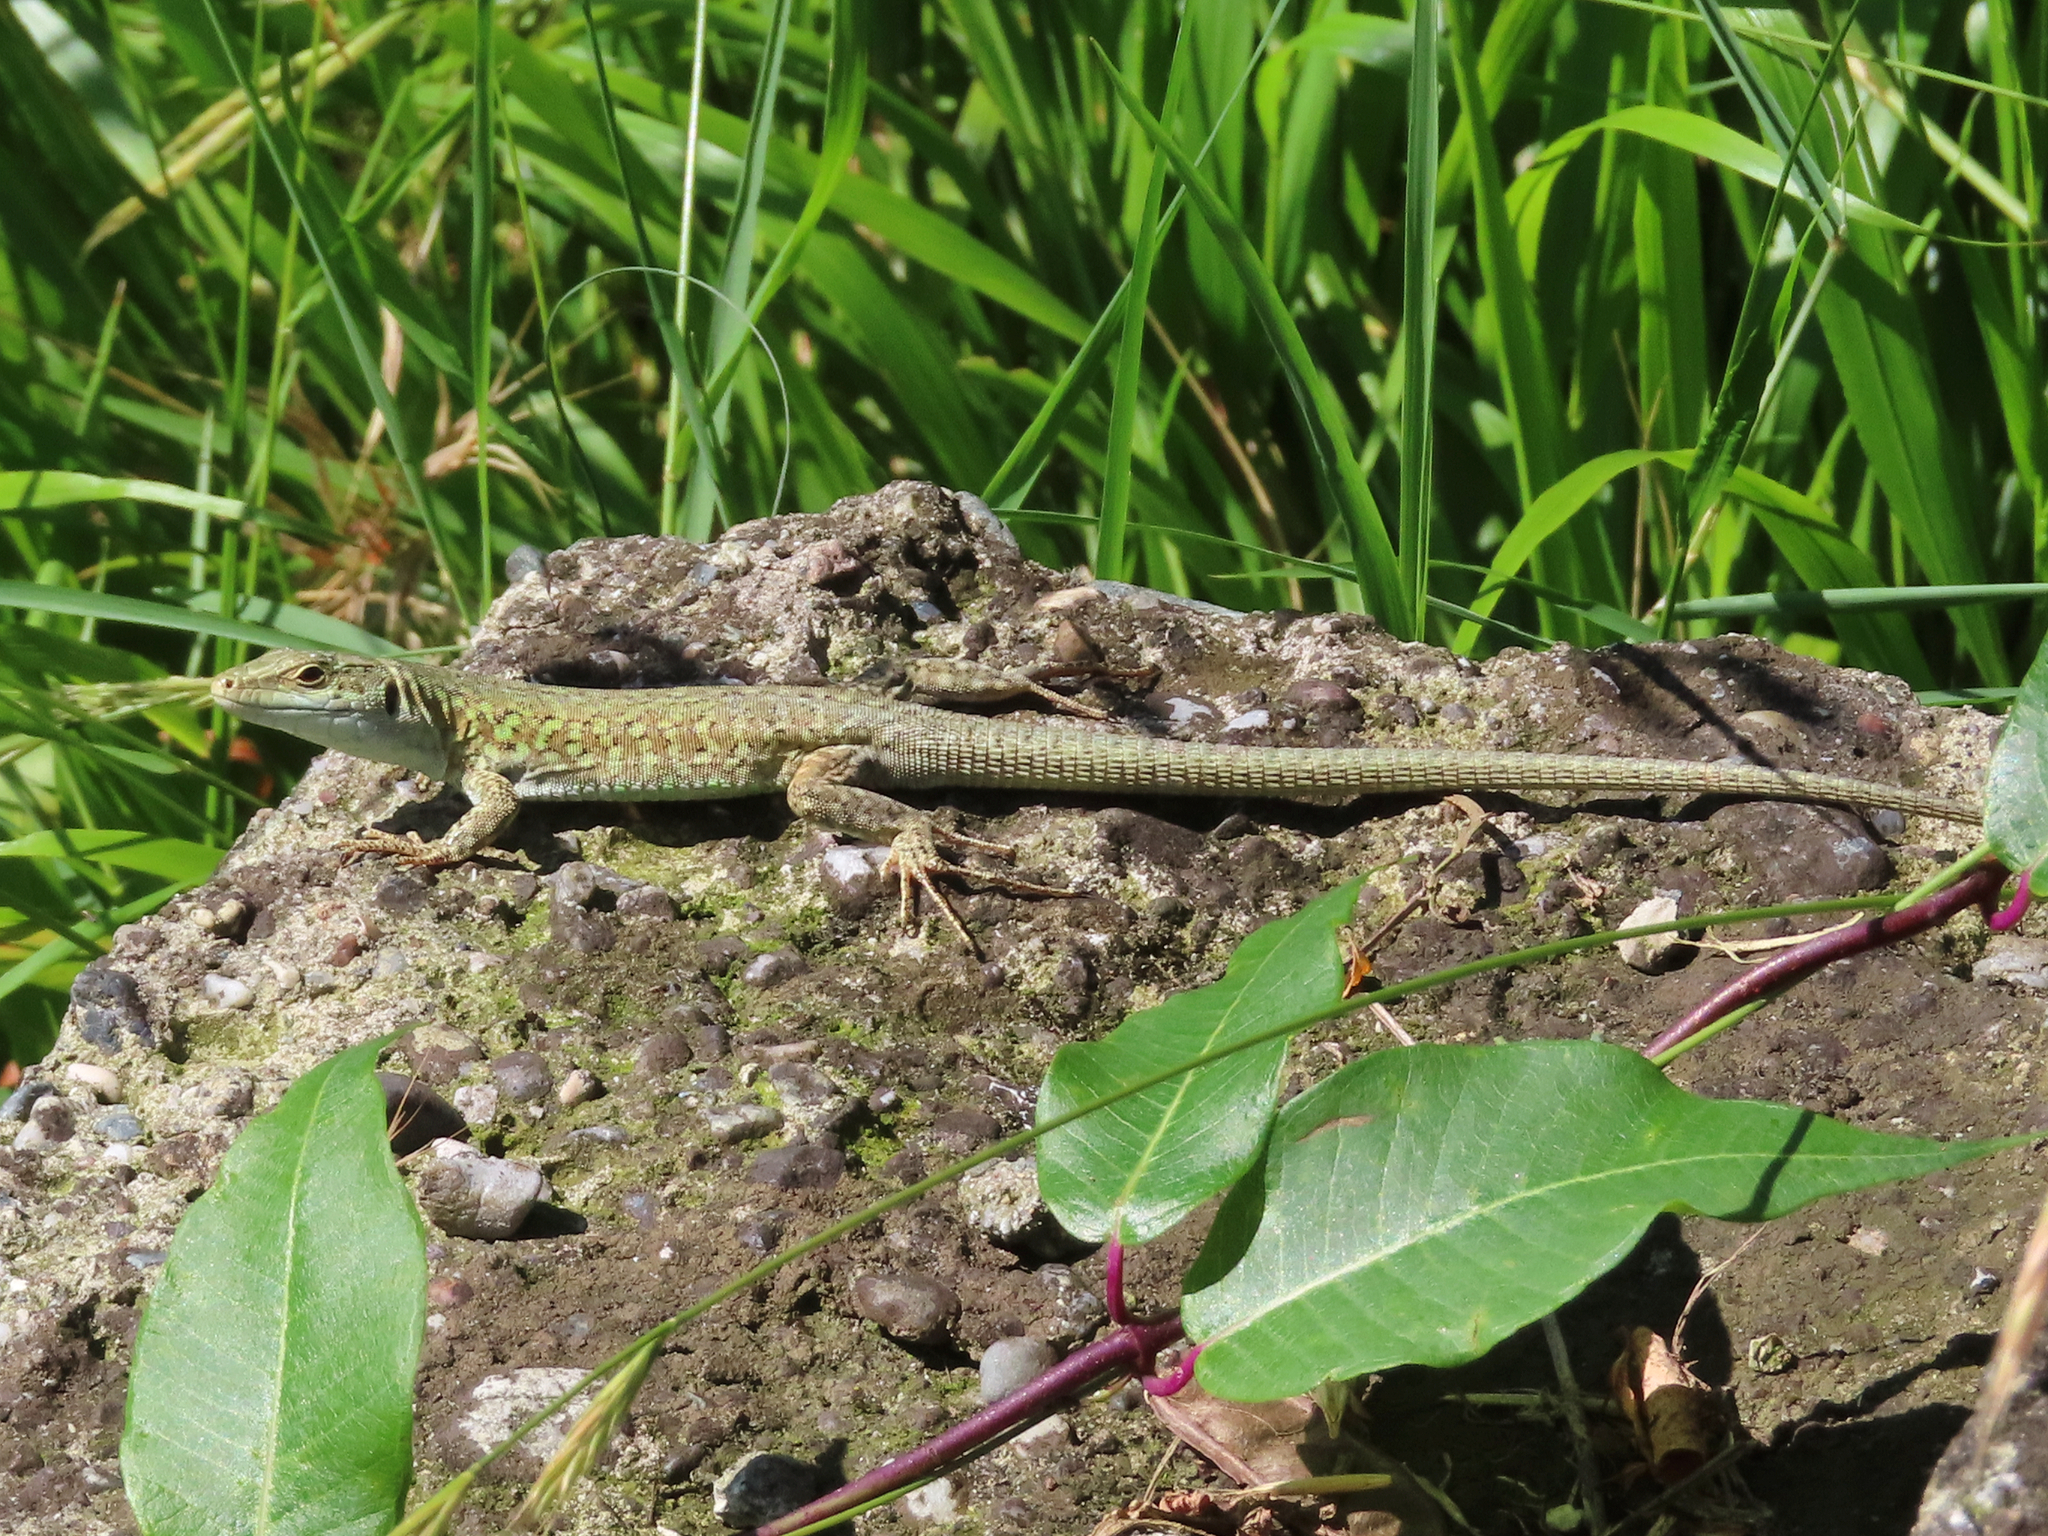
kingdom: Animalia
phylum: Chordata
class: Squamata
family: Lacertidae
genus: Podarcis
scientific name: Podarcis siculus
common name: Italian wall lizard
